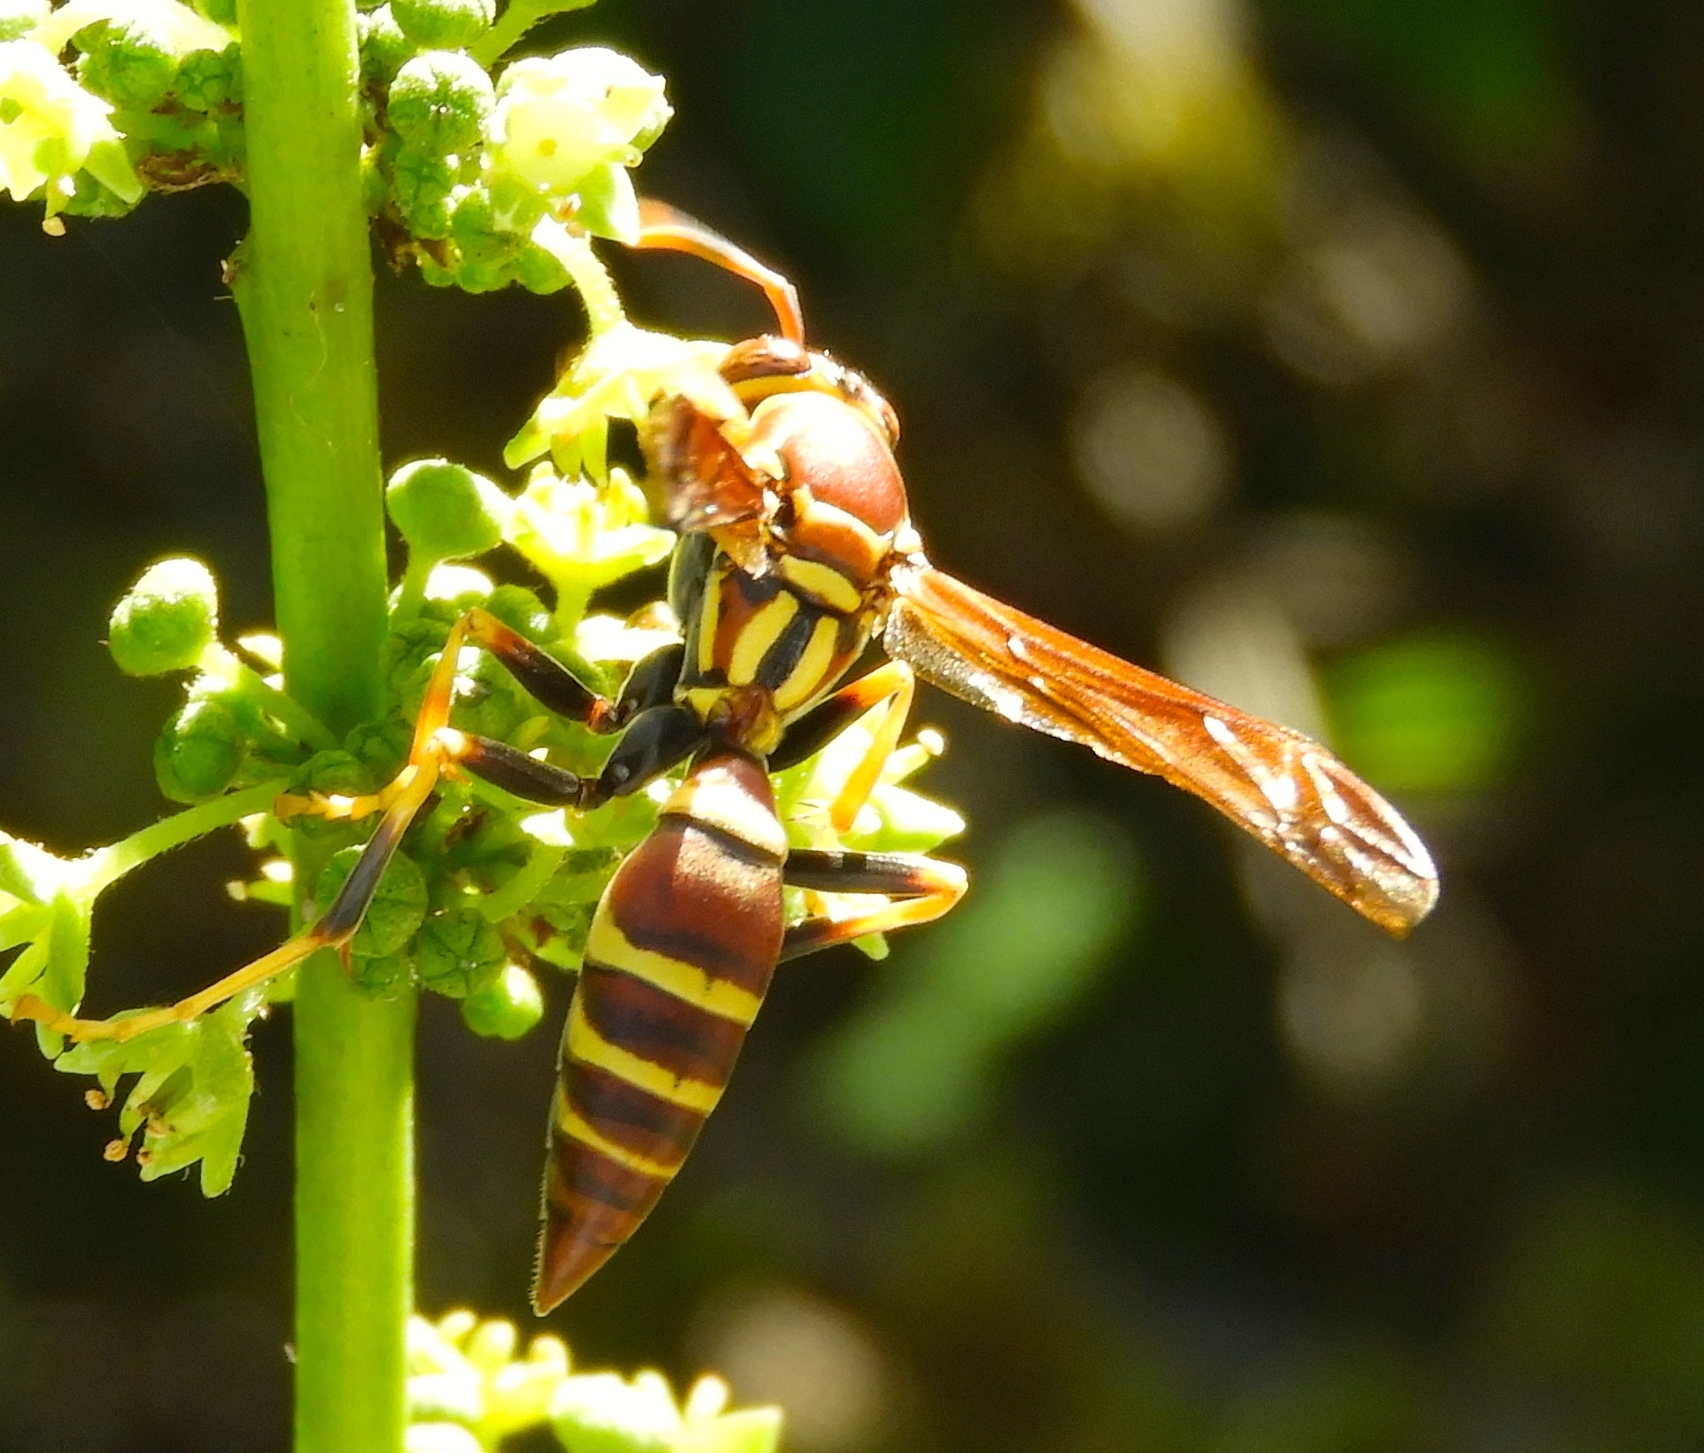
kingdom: Animalia
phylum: Arthropoda
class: Insecta
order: Hymenoptera
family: Eumenidae
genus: Polistes
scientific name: Polistes instabilis
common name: Unstable paper wasp
